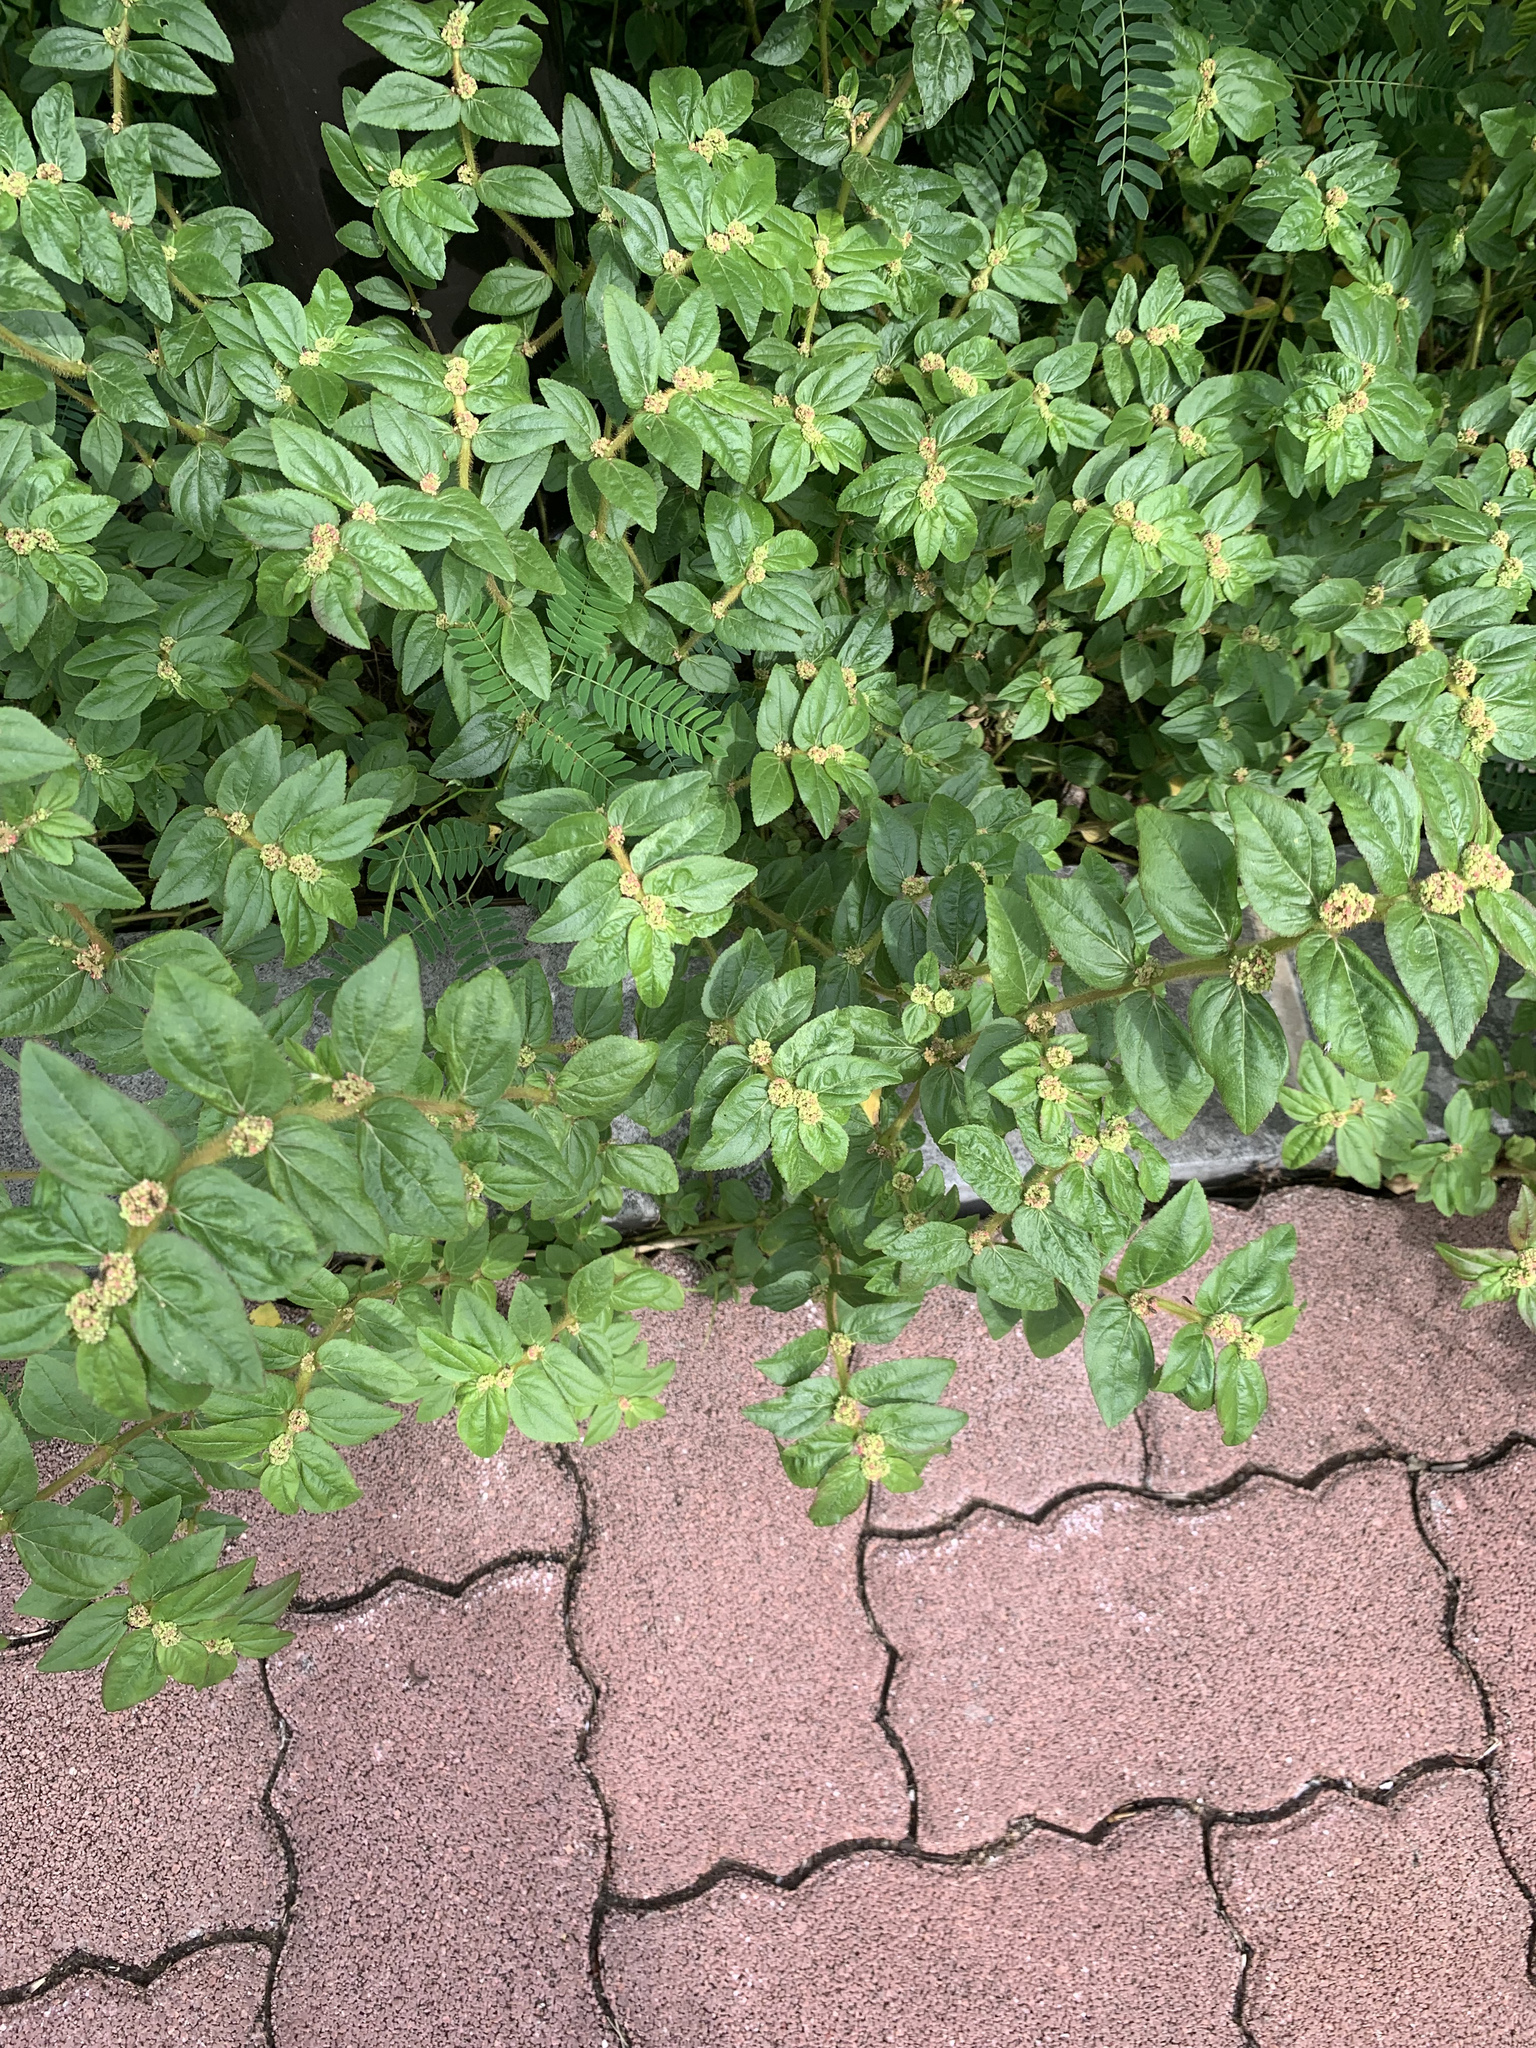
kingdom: Plantae
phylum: Tracheophyta
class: Magnoliopsida
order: Malpighiales
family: Euphorbiaceae
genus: Euphorbia
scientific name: Euphorbia hirta
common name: Pillpod sandmat
